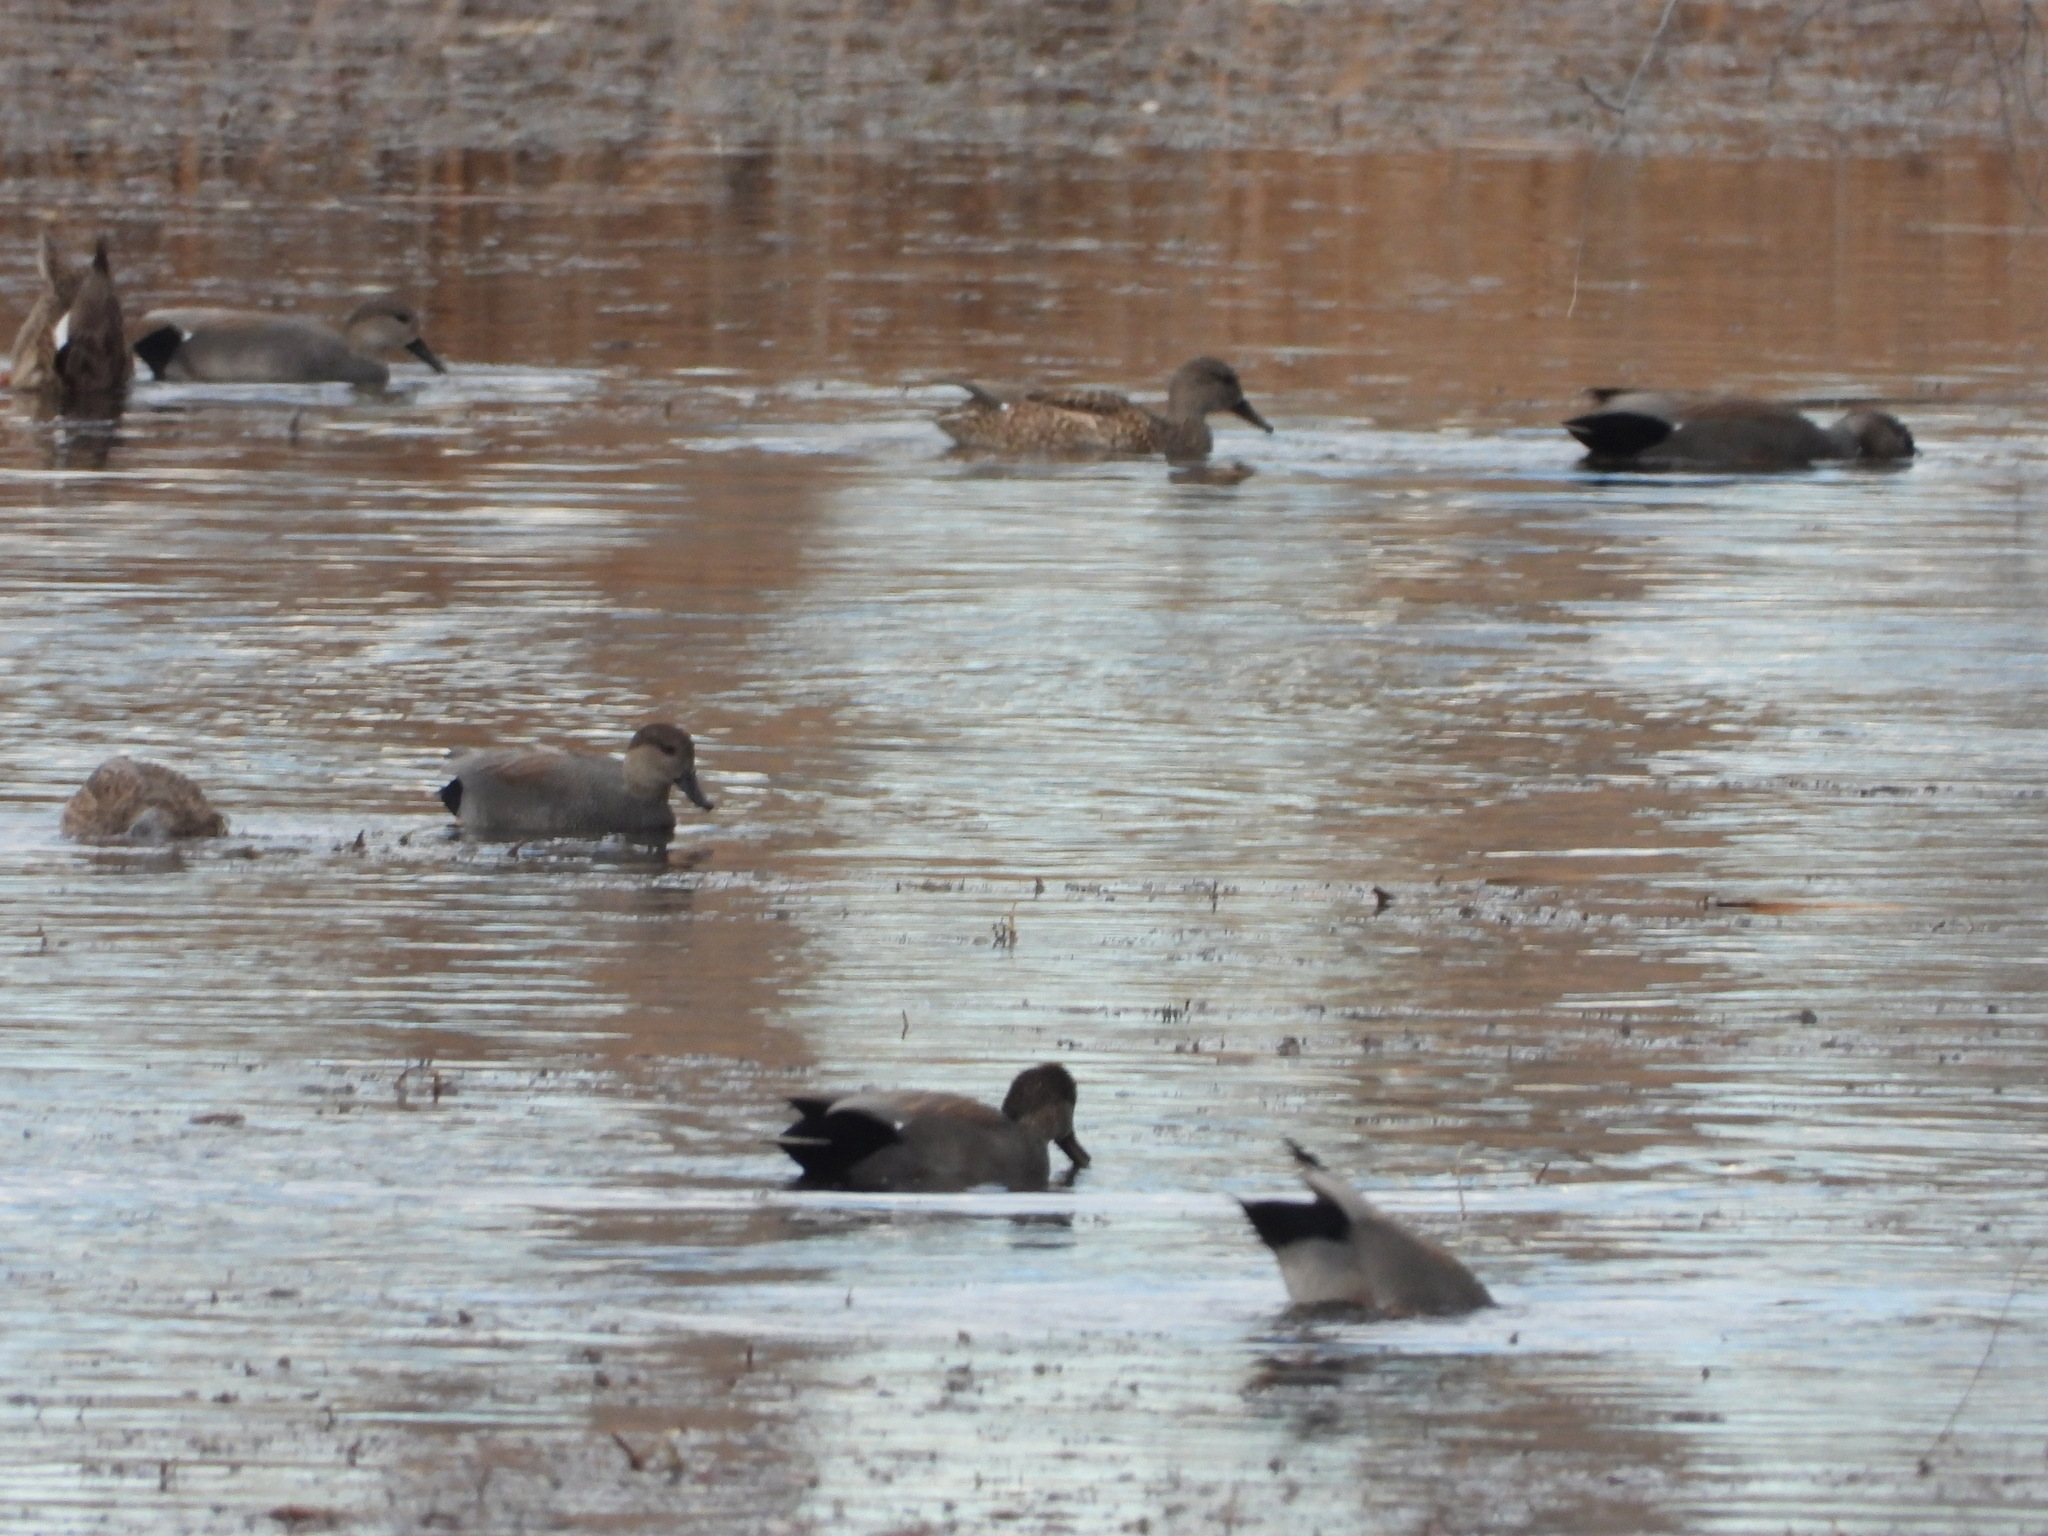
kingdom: Animalia
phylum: Chordata
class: Aves
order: Anseriformes
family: Anatidae
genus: Mareca
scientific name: Mareca strepera
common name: Gadwall
